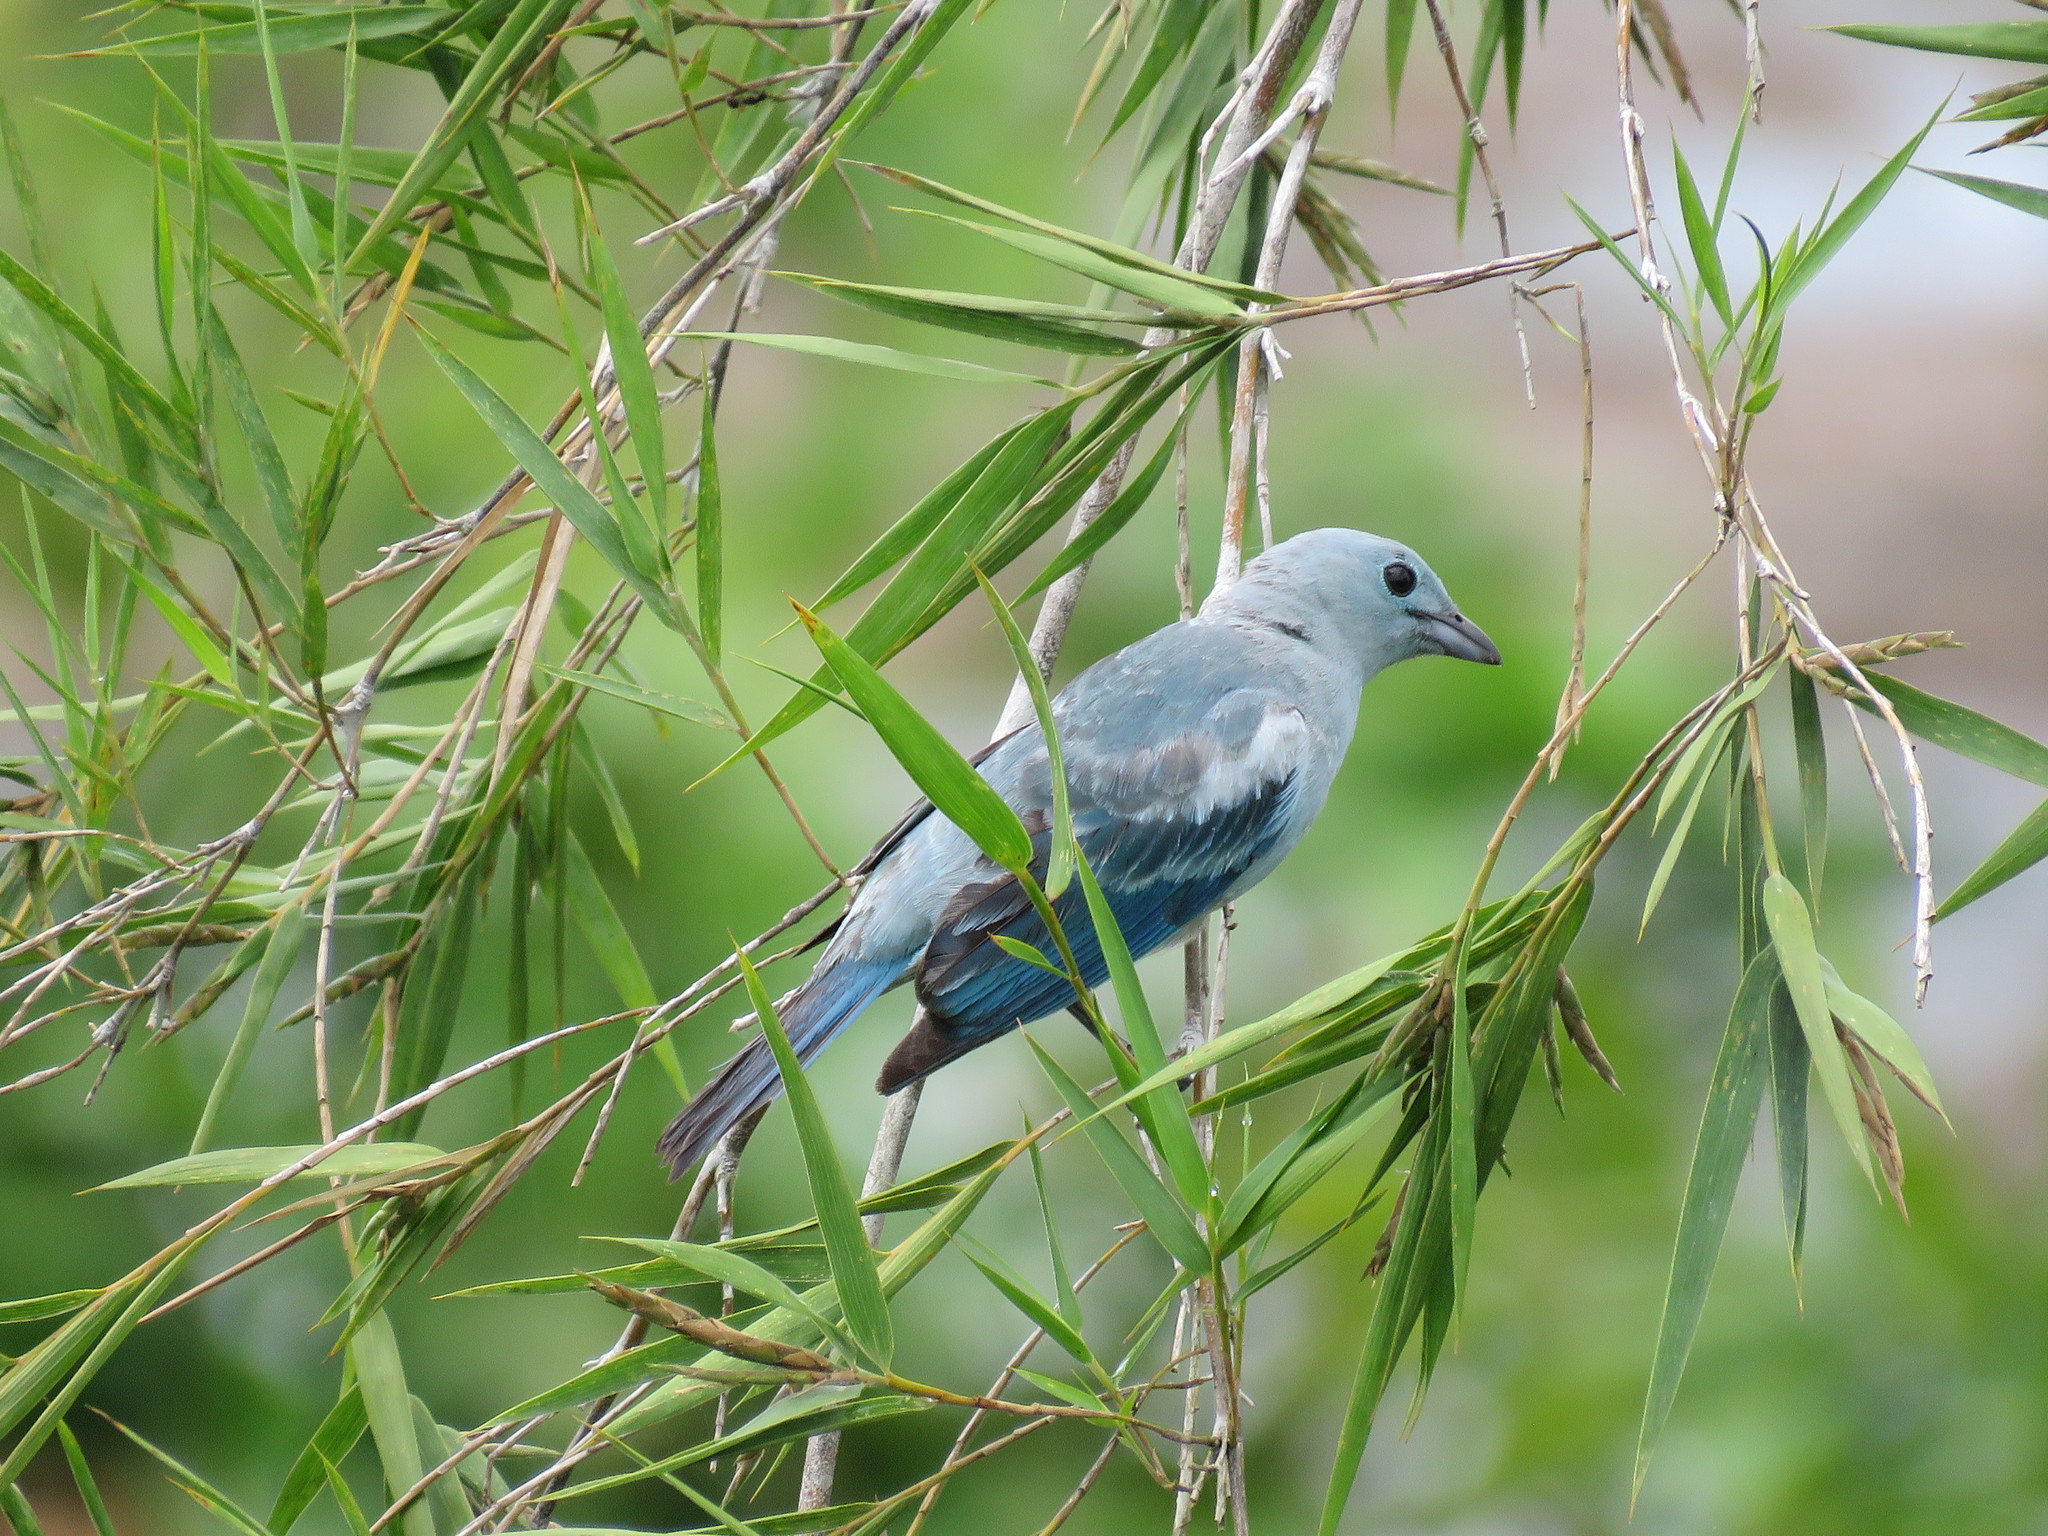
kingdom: Animalia
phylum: Chordata
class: Aves
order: Passeriformes
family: Thraupidae
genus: Thraupis
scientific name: Thraupis episcopus
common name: Blue-grey tanager
